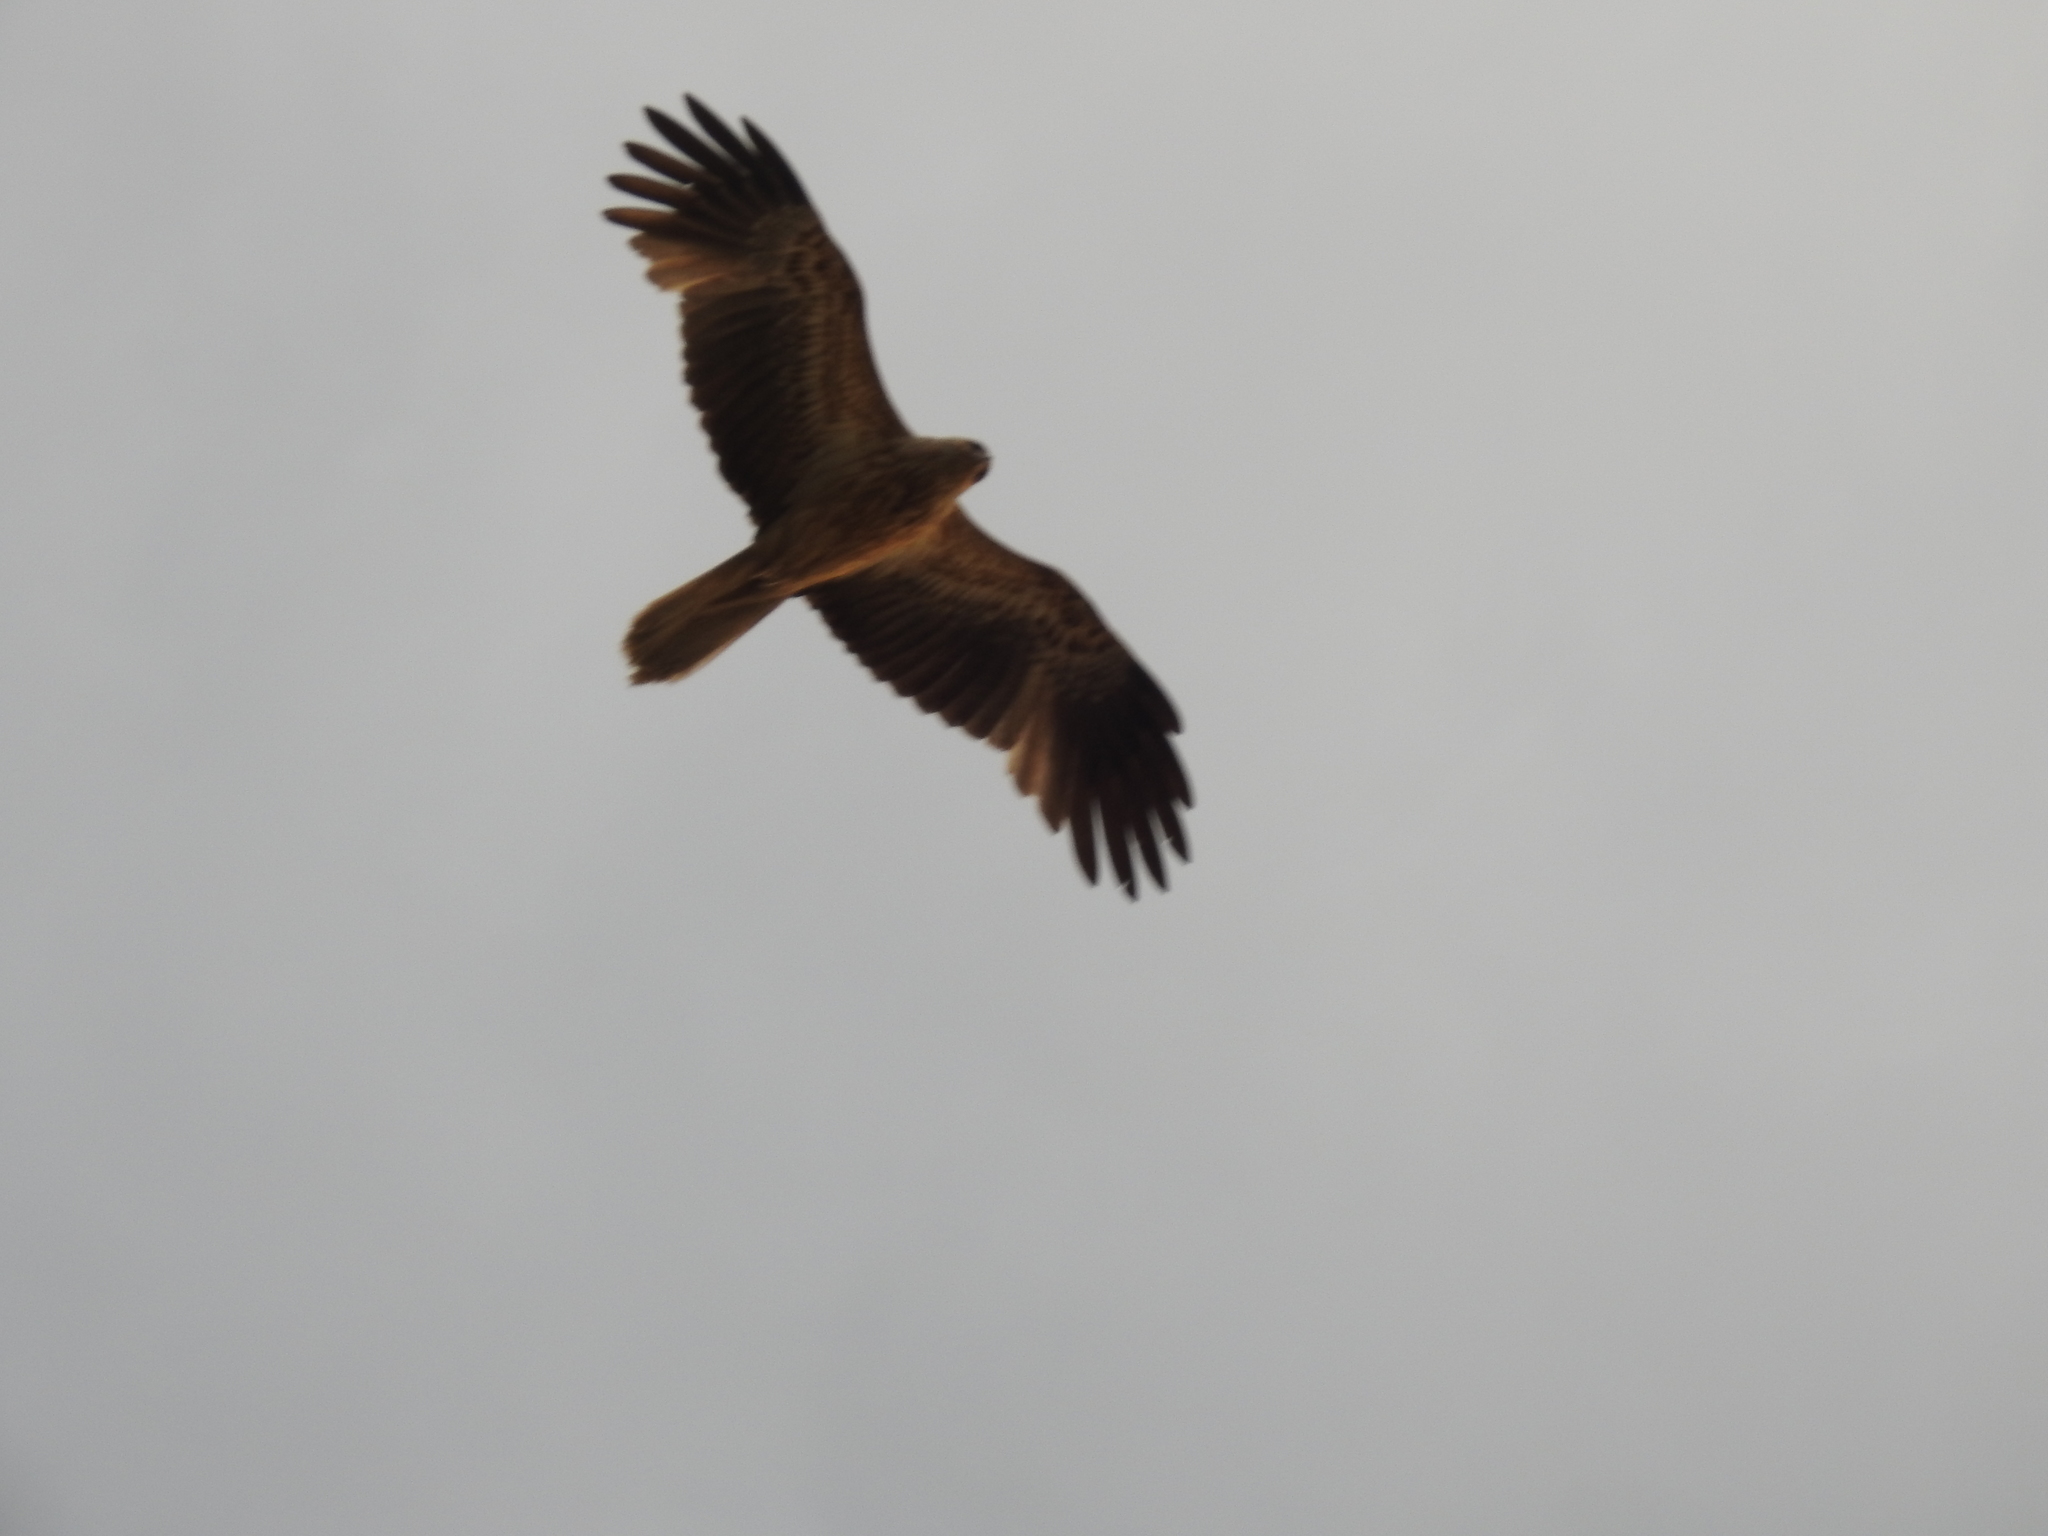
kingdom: Animalia
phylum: Chordata
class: Aves
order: Accipitriformes
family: Accipitridae
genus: Haliastur
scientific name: Haliastur sphenurus
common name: Whistling kite
